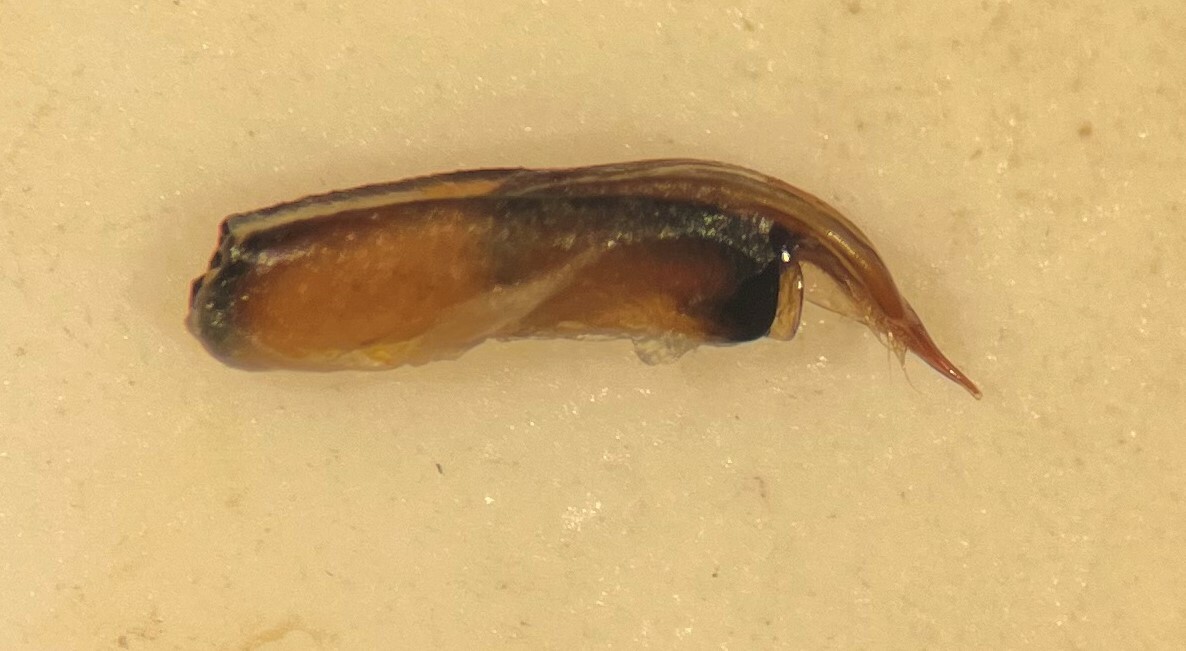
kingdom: Animalia
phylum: Arthropoda
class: Insecta
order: Coleoptera
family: Hydrophilidae
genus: Berosus
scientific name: Berosus hoplites
